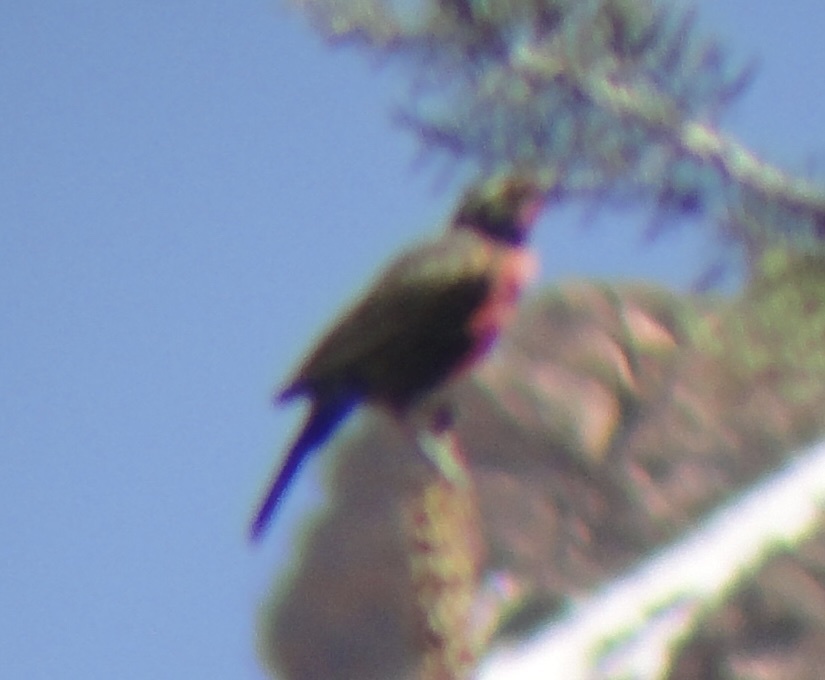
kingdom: Animalia
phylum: Chordata
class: Aves
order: Passeriformes
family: Icteridae
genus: Sturnella
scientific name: Sturnella loyca
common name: Long-tailed meadowlark
